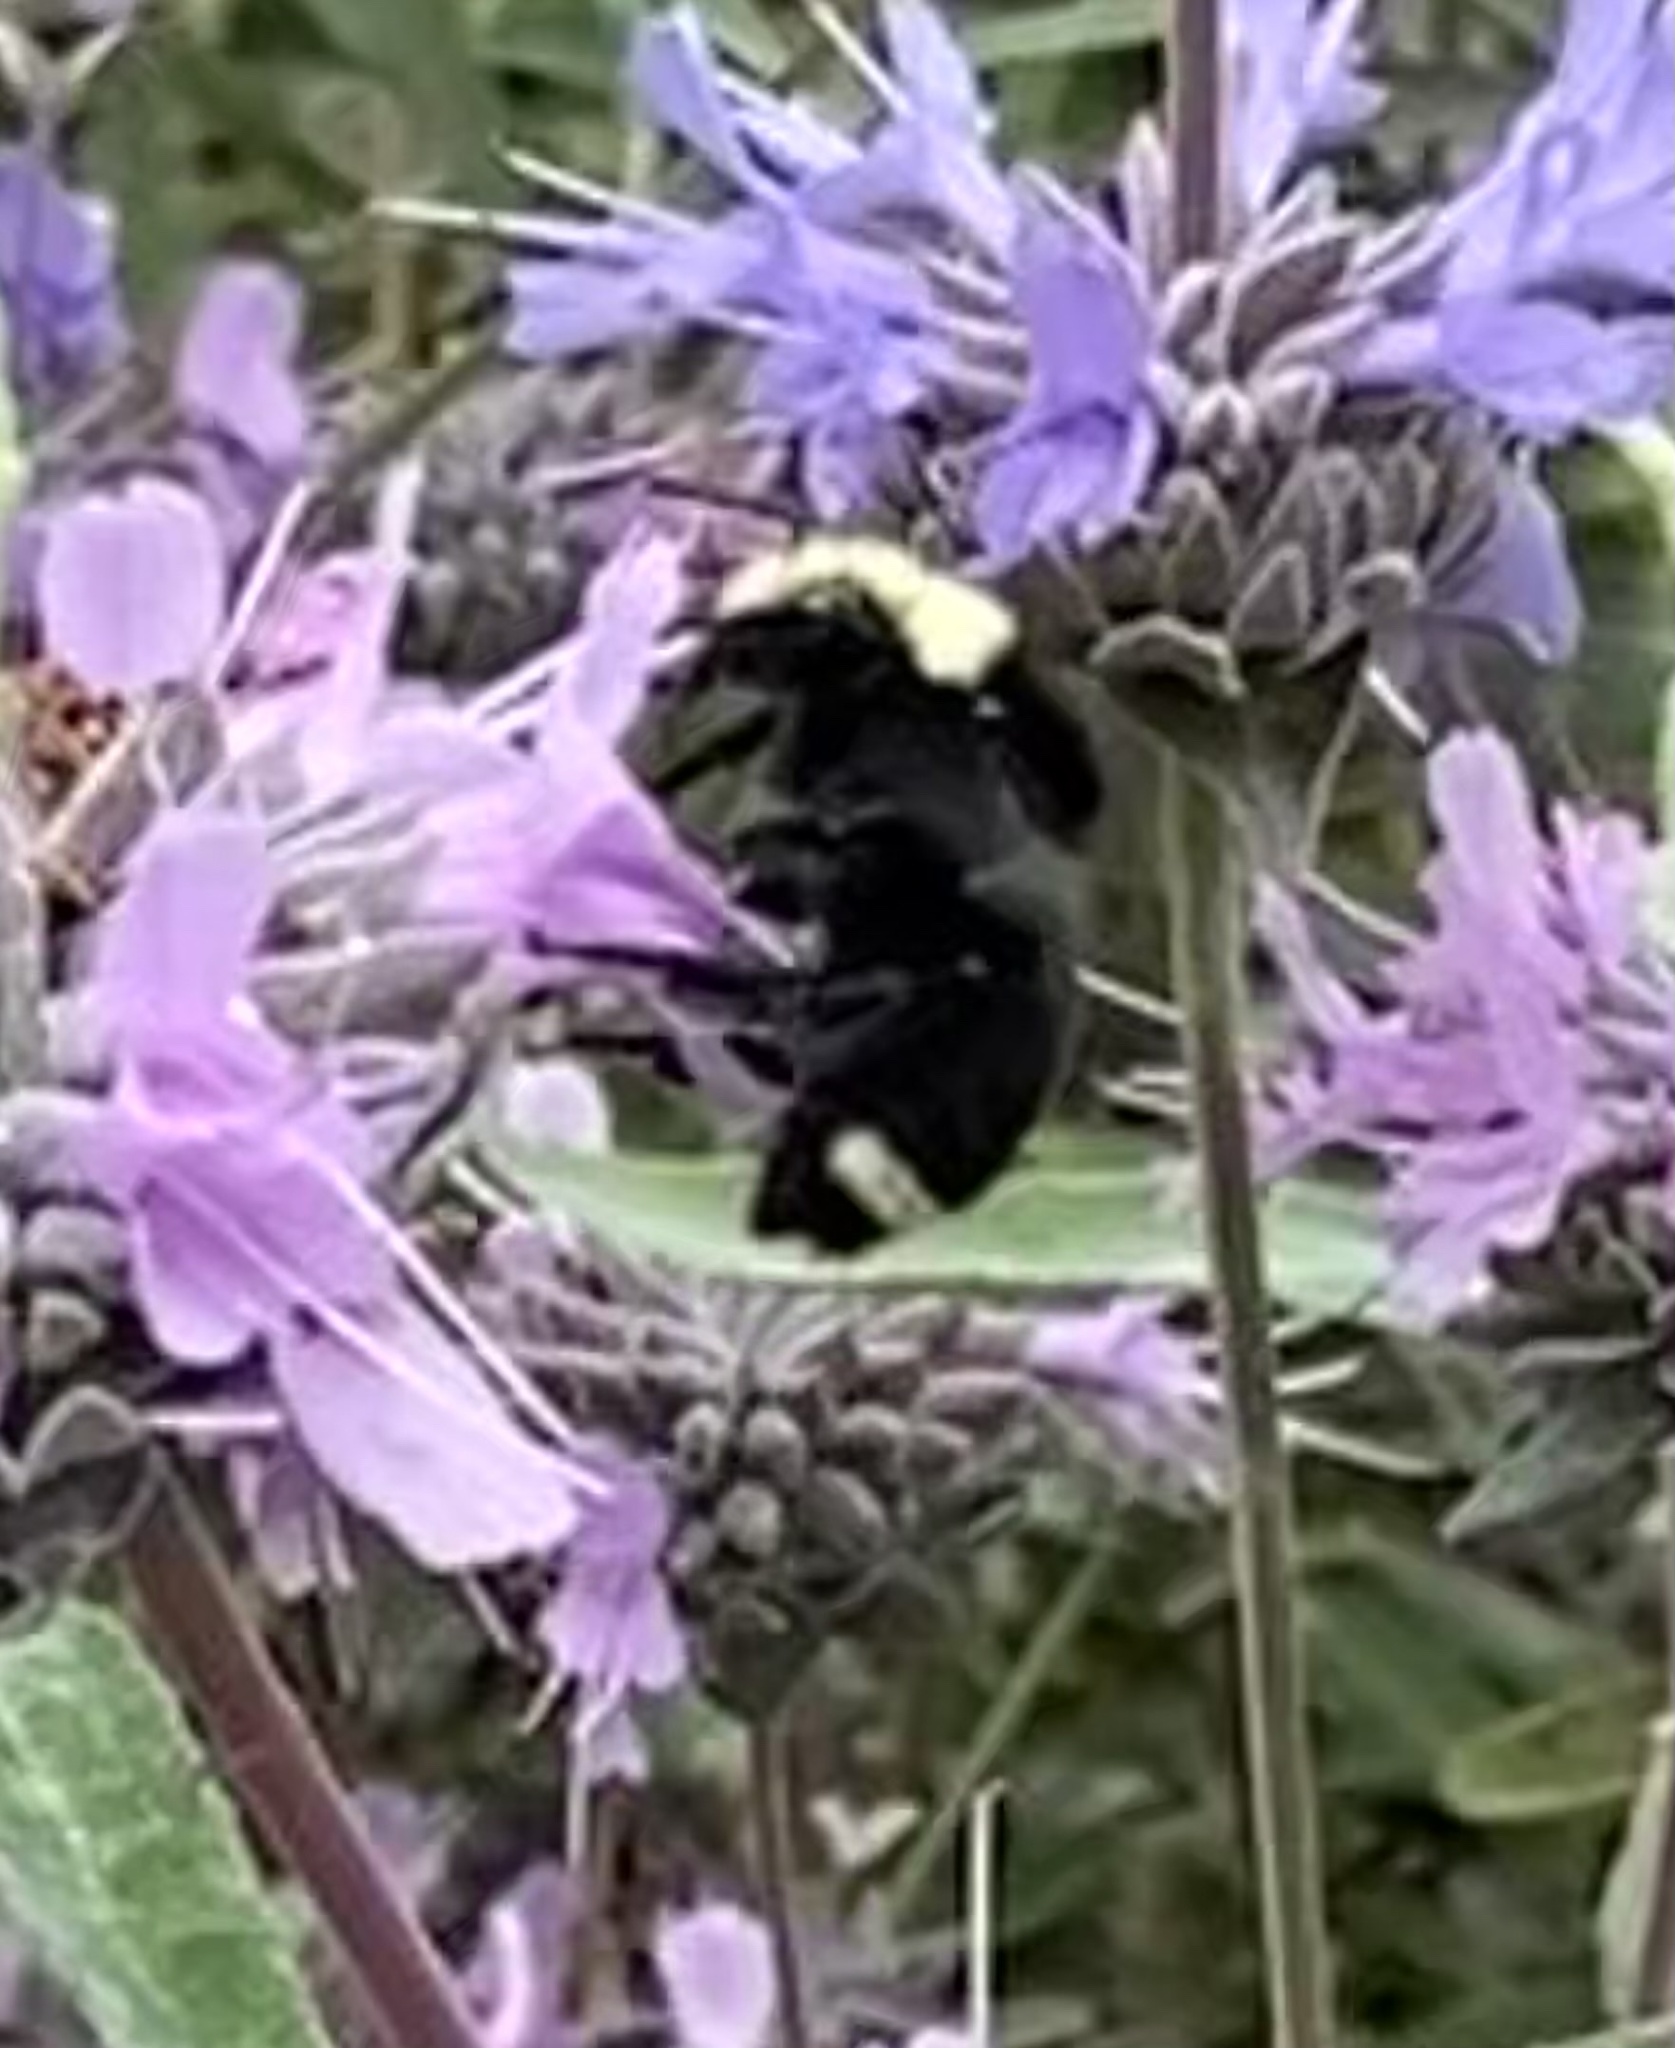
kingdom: Animalia
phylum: Arthropoda
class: Insecta
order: Hymenoptera
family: Apidae
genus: Bombus
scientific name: Bombus vosnesenskii
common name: Vosnesensky bumble bee
